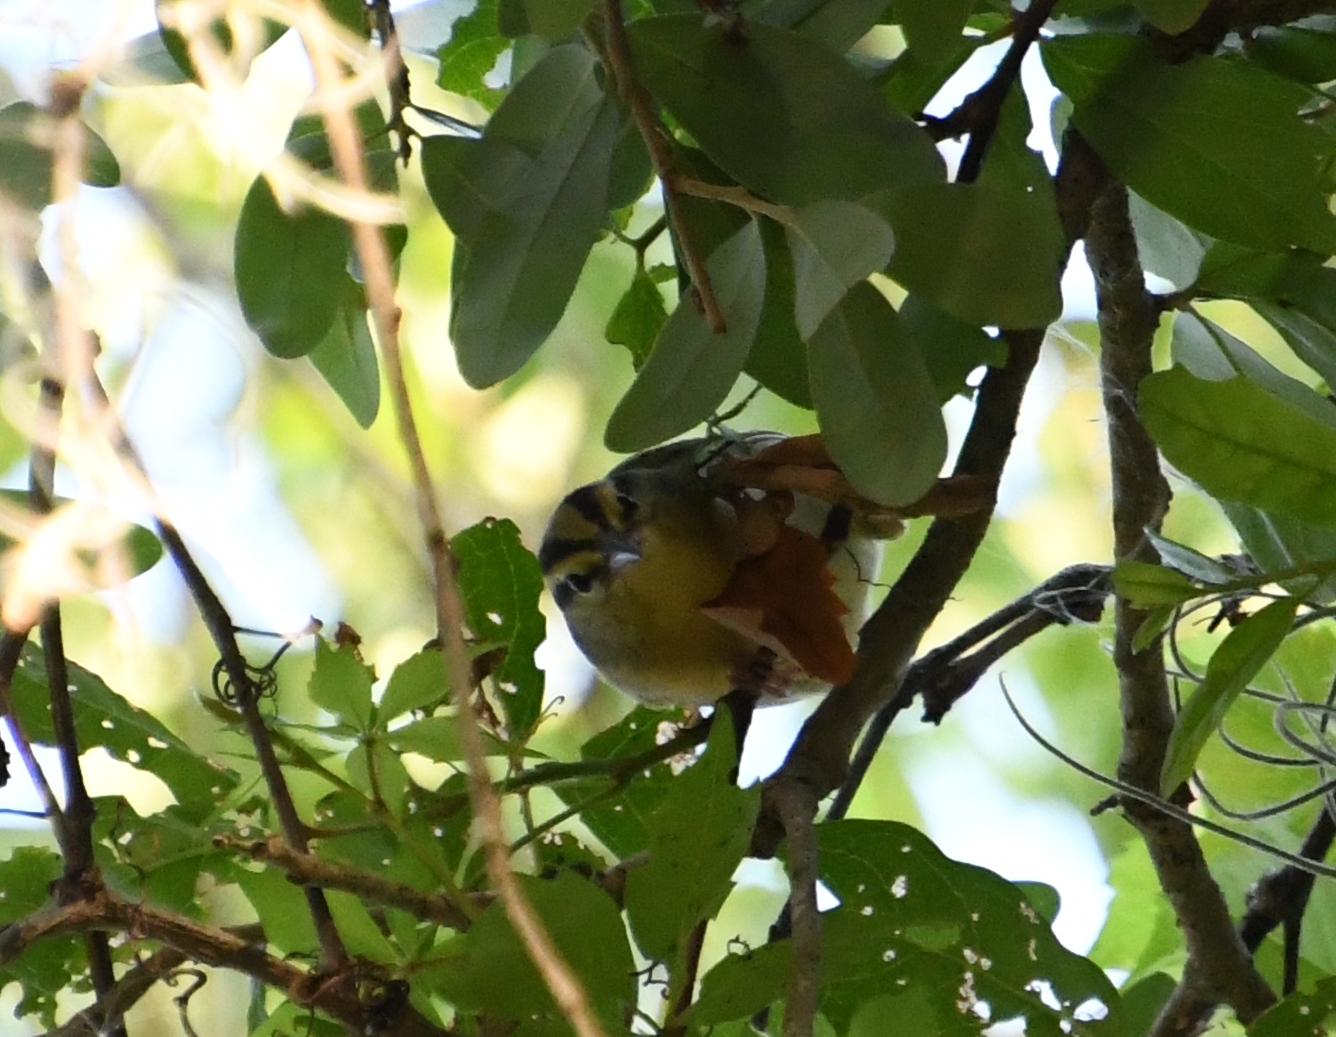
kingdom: Animalia
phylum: Chordata
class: Aves
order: Passeriformes
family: Parulidae
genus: Helmitheros
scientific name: Helmitheros vermivorum
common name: Worm-eating warbler
